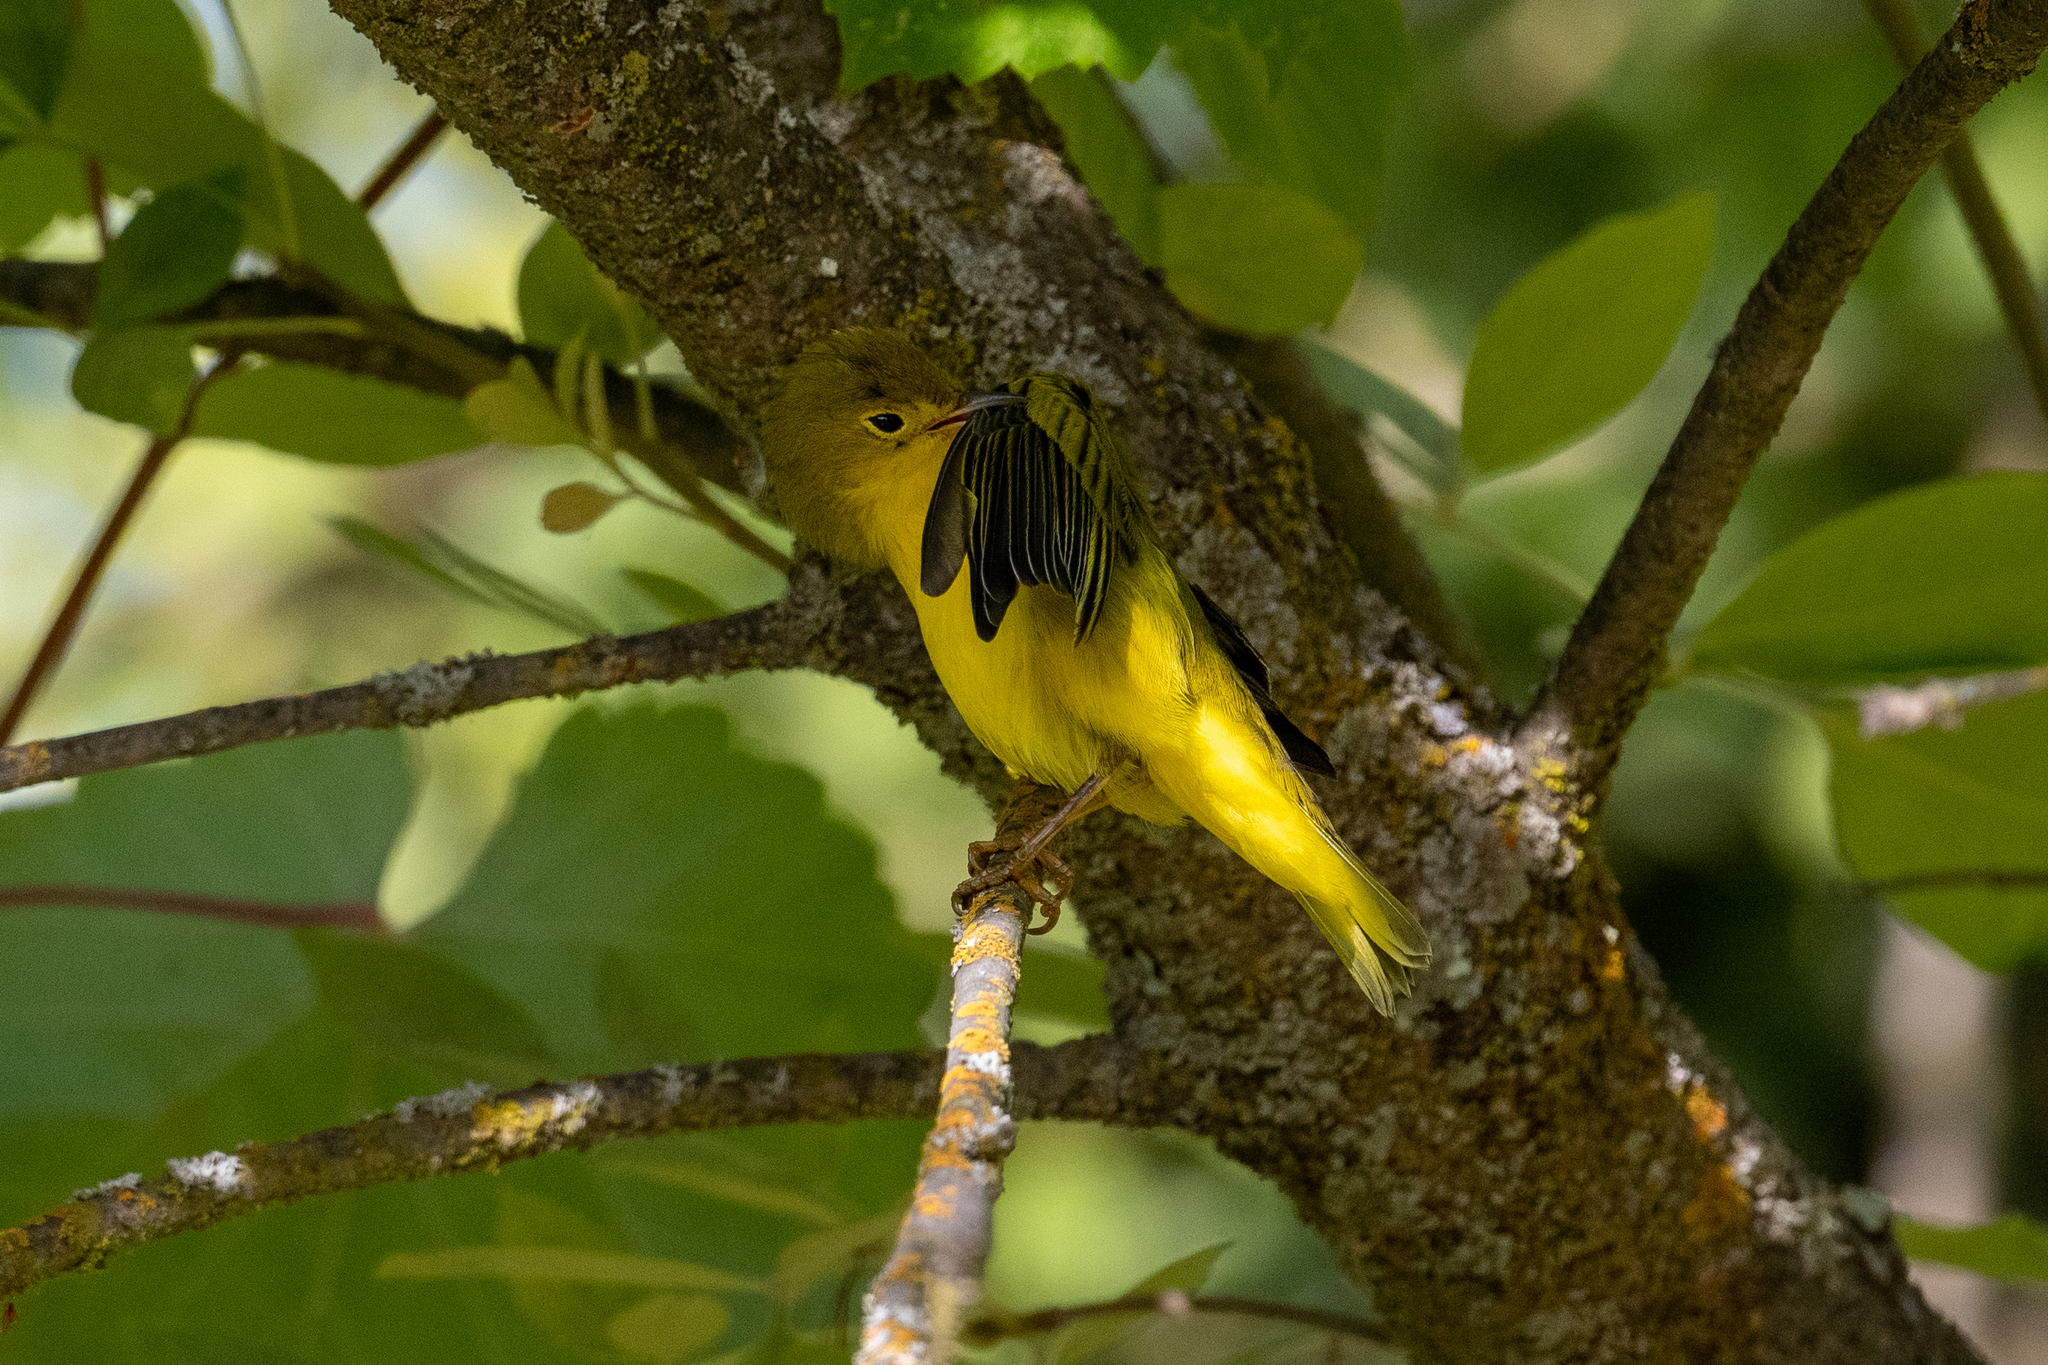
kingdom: Animalia
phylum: Chordata
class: Aves
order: Passeriformes
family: Parulidae
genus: Setophaga
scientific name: Setophaga petechia
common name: Yellow warbler
